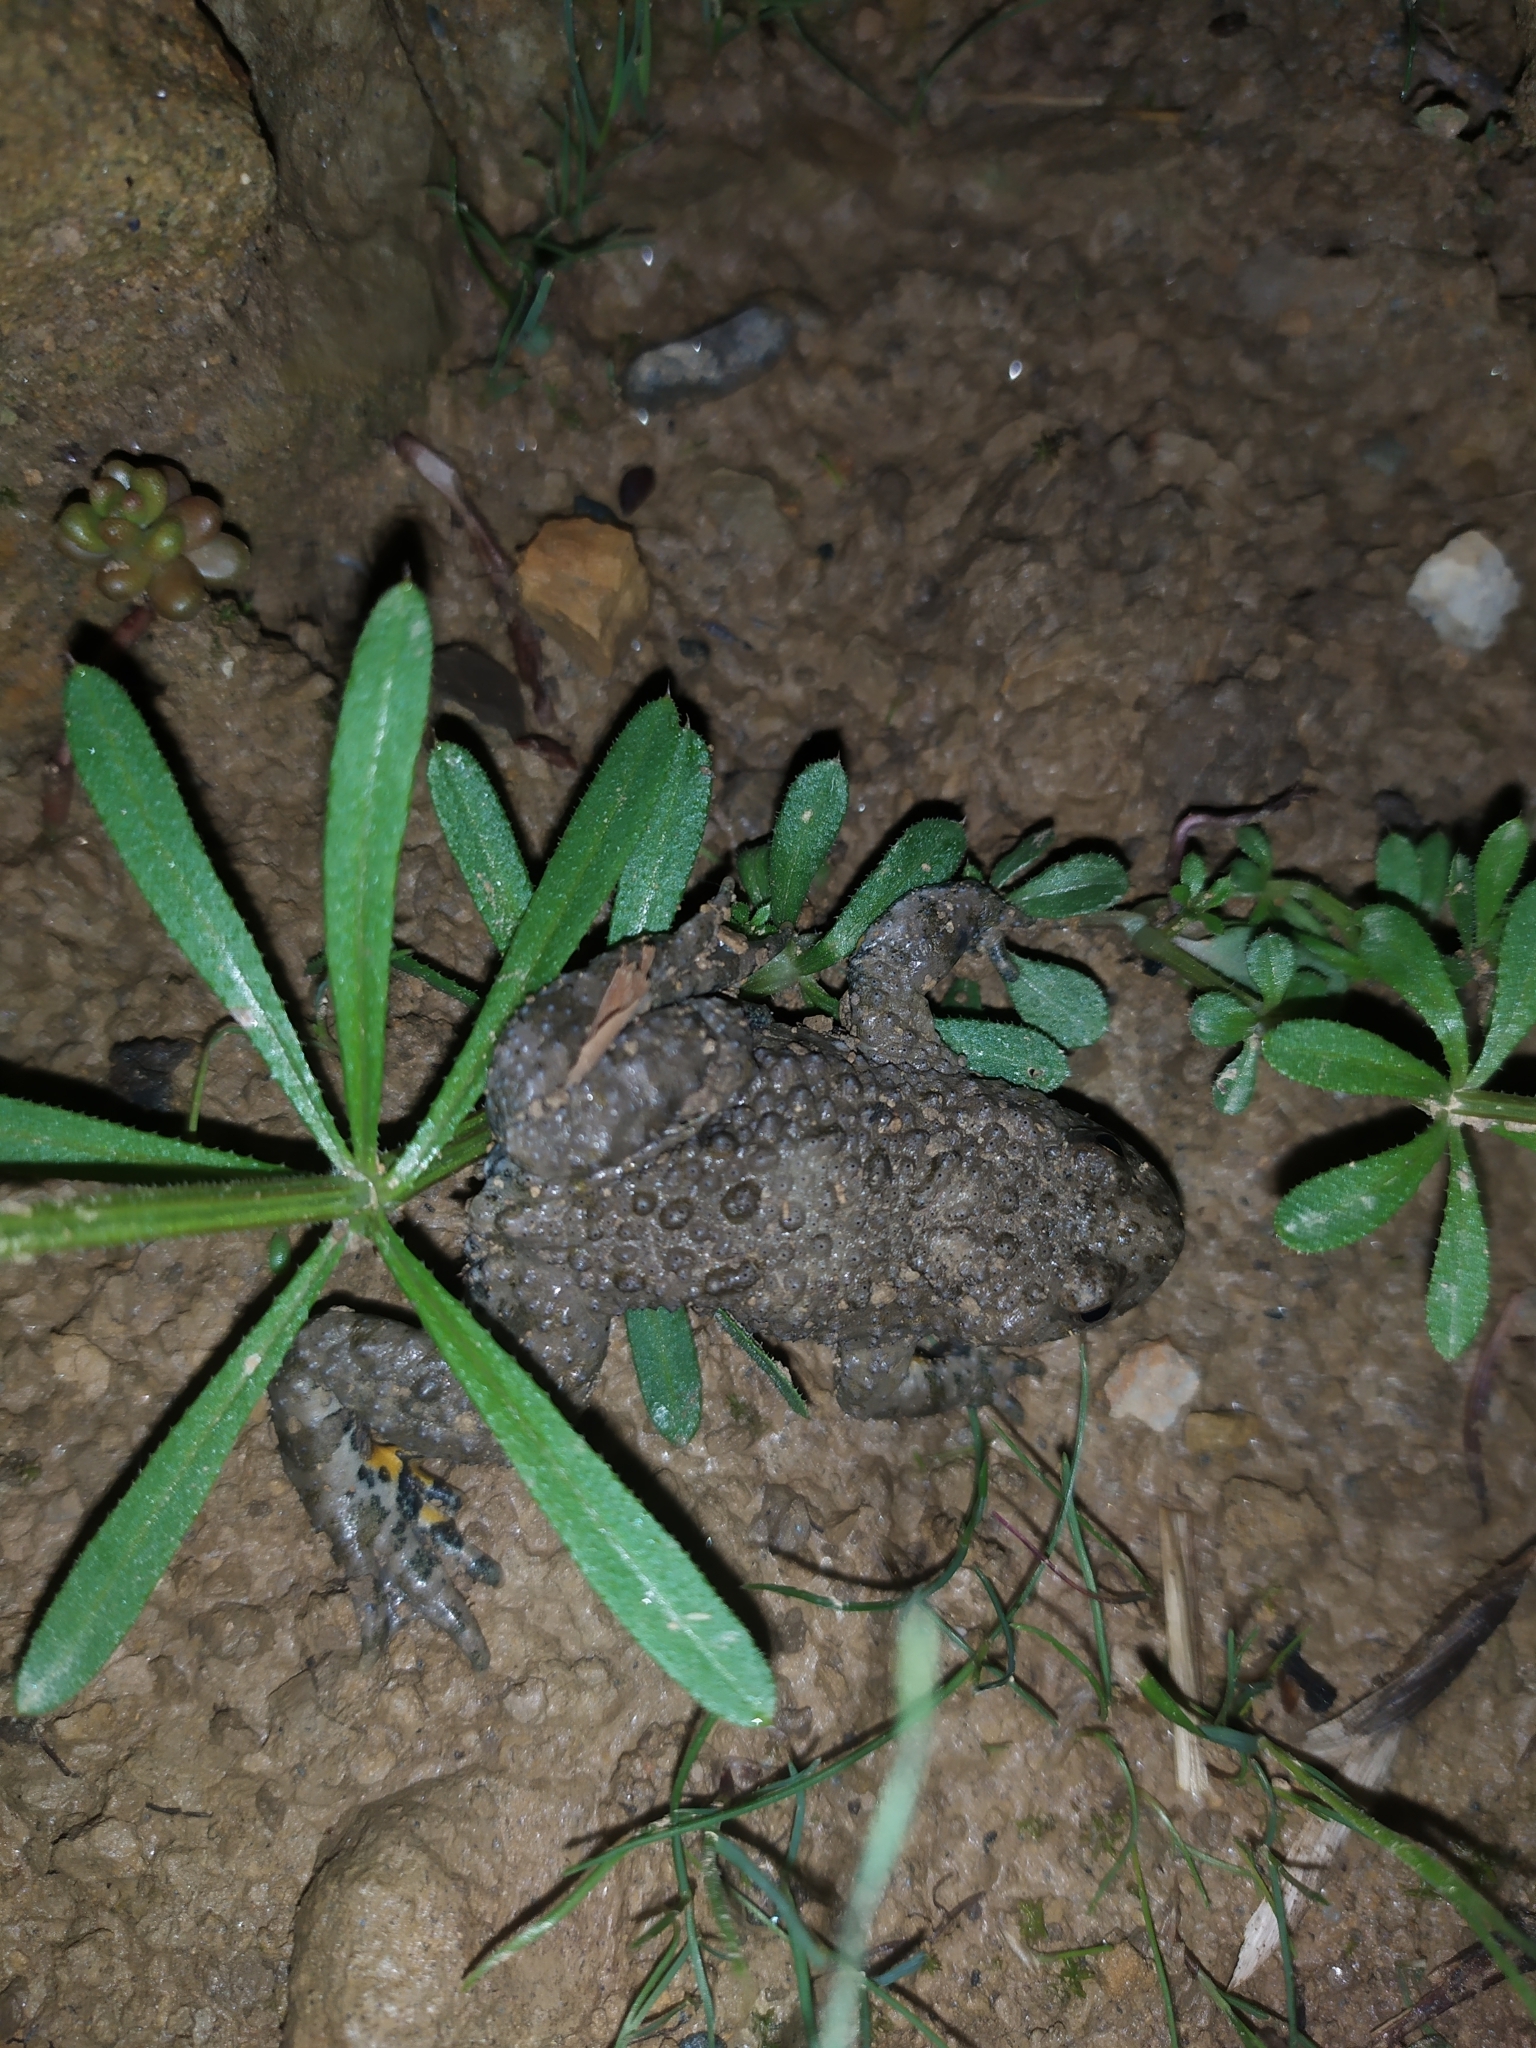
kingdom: Animalia
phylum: Chordata
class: Amphibia
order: Anura
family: Bombinatoridae
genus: Bombina
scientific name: Bombina variegata
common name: Yellow-bellied toad
